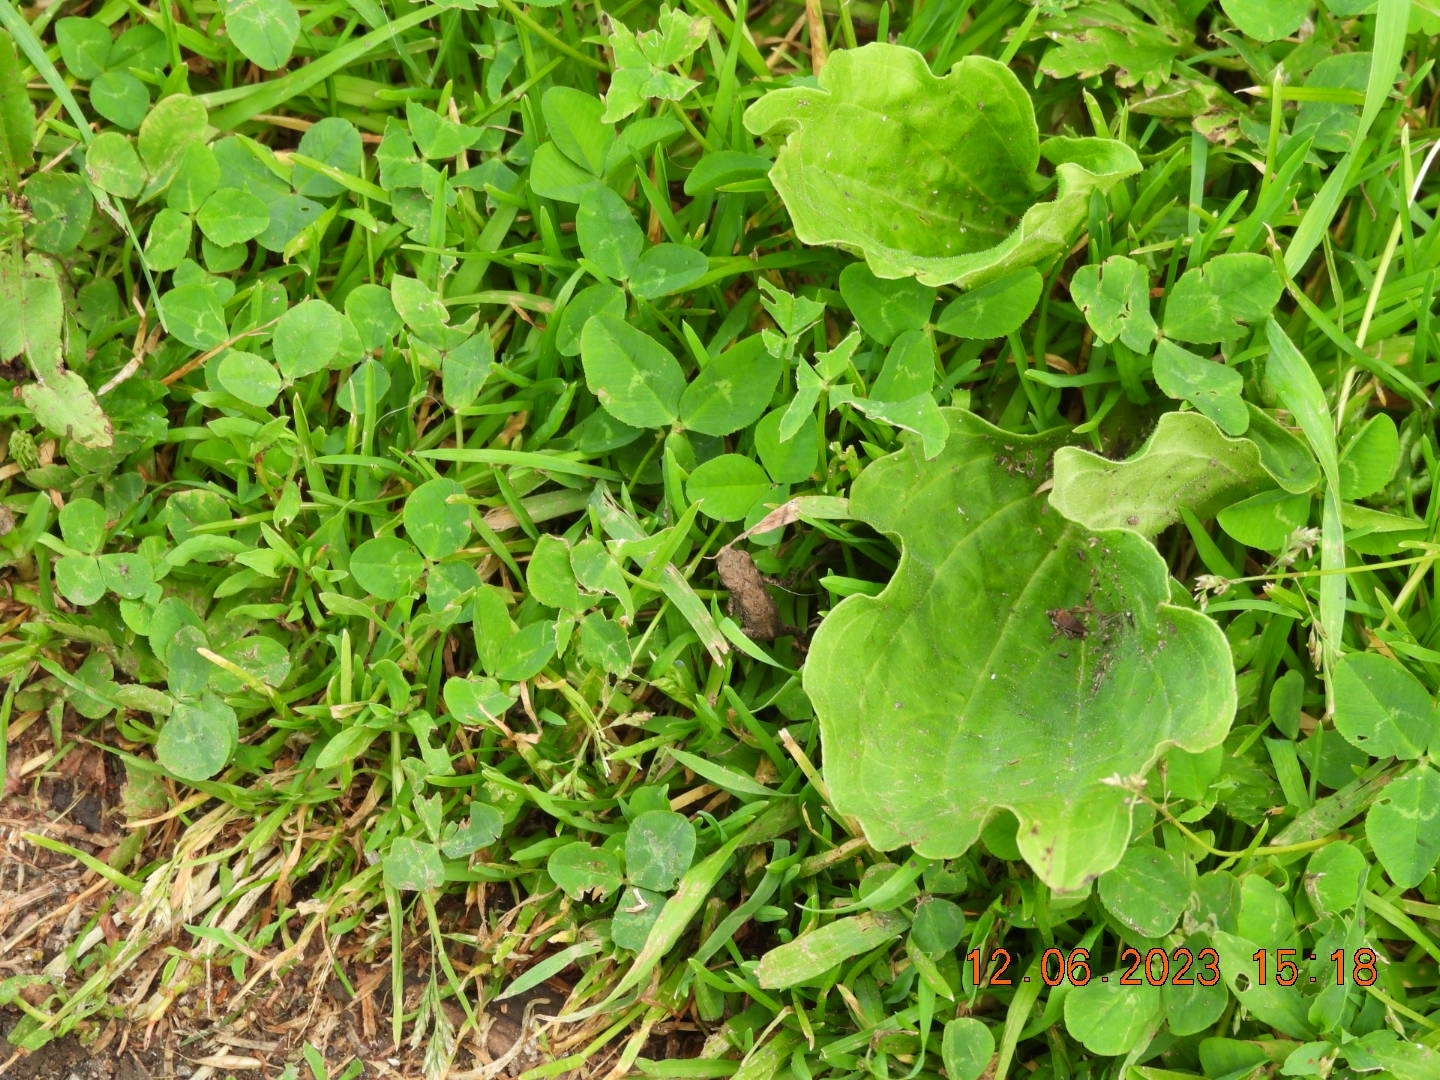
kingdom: Animalia
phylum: Chordata
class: Amphibia
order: Anura
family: Bufonidae
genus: Bufo
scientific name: Bufo bufo
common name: Common toad
